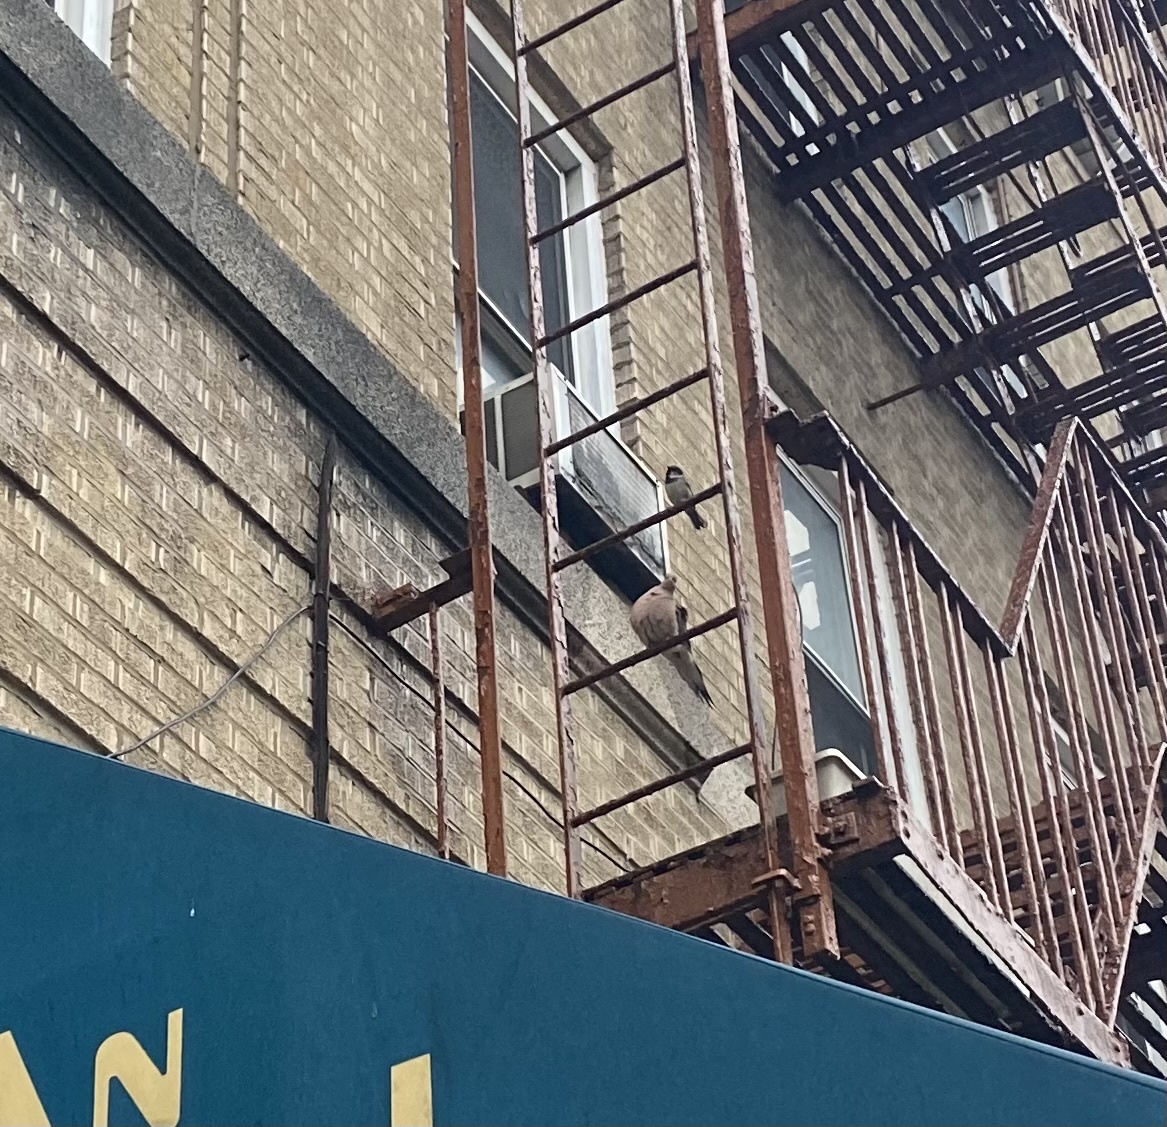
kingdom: Animalia
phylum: Chordata
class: Aves
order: Columbiformes
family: Columbidae
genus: Zenaida
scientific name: Zenaida macroura
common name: Mourning dove
